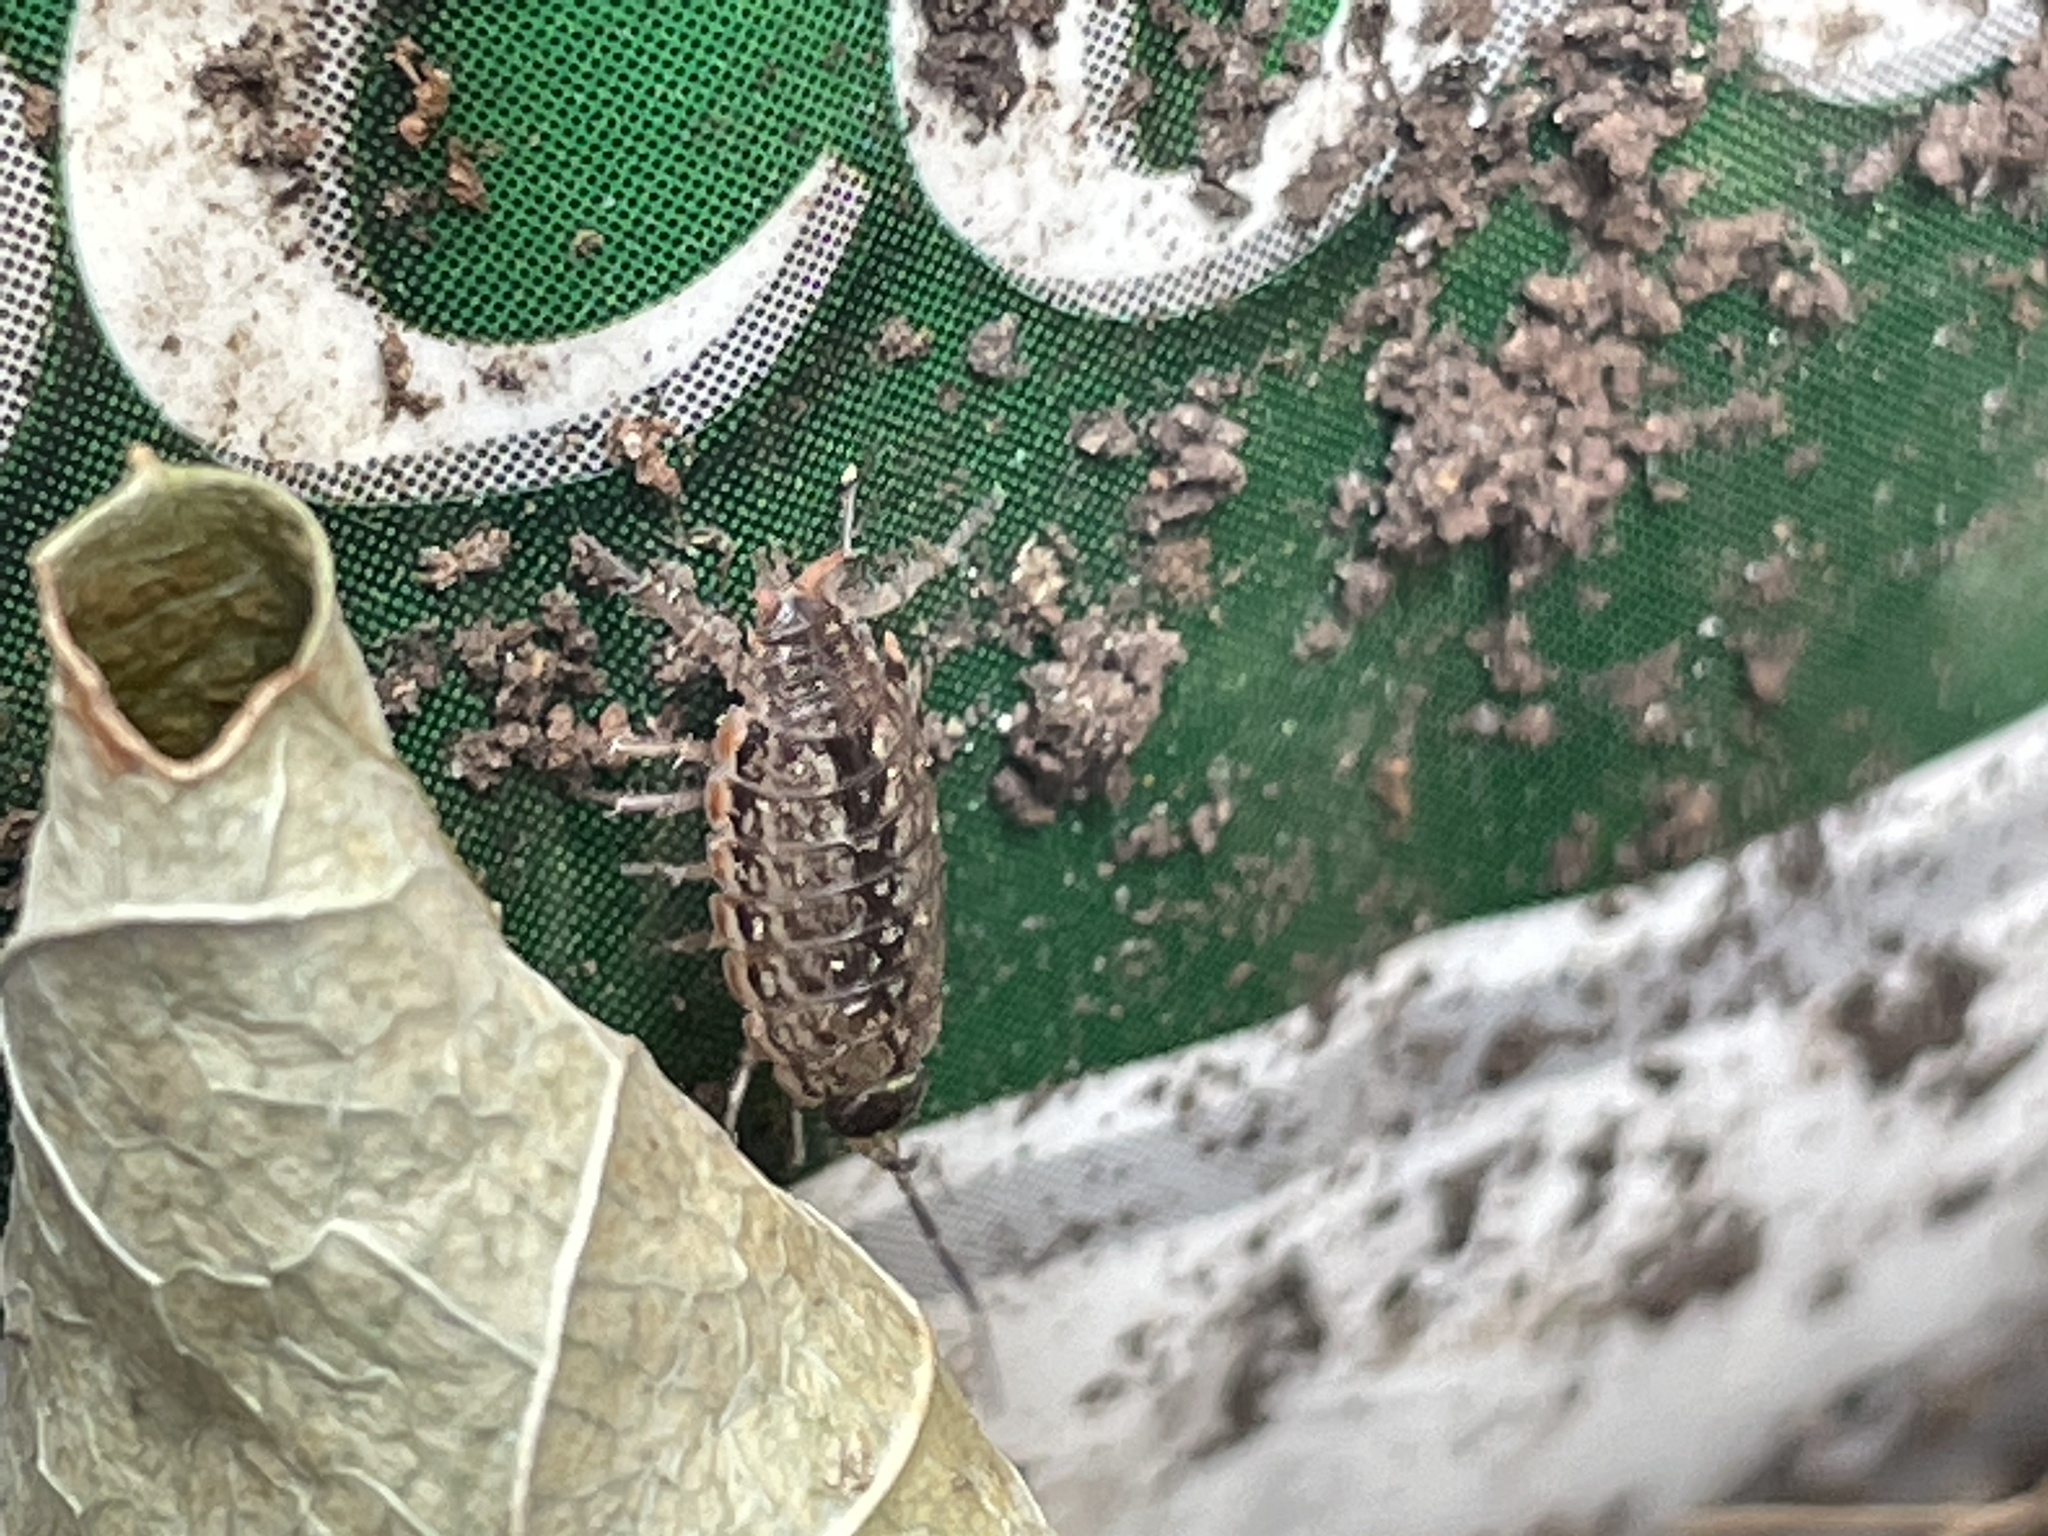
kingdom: Animalia
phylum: Arthropoda
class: Malacostraca
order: Isopoda
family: Philosciidae
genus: Philoscia
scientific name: Philoscia muscorum
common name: Common striped woodlouse
